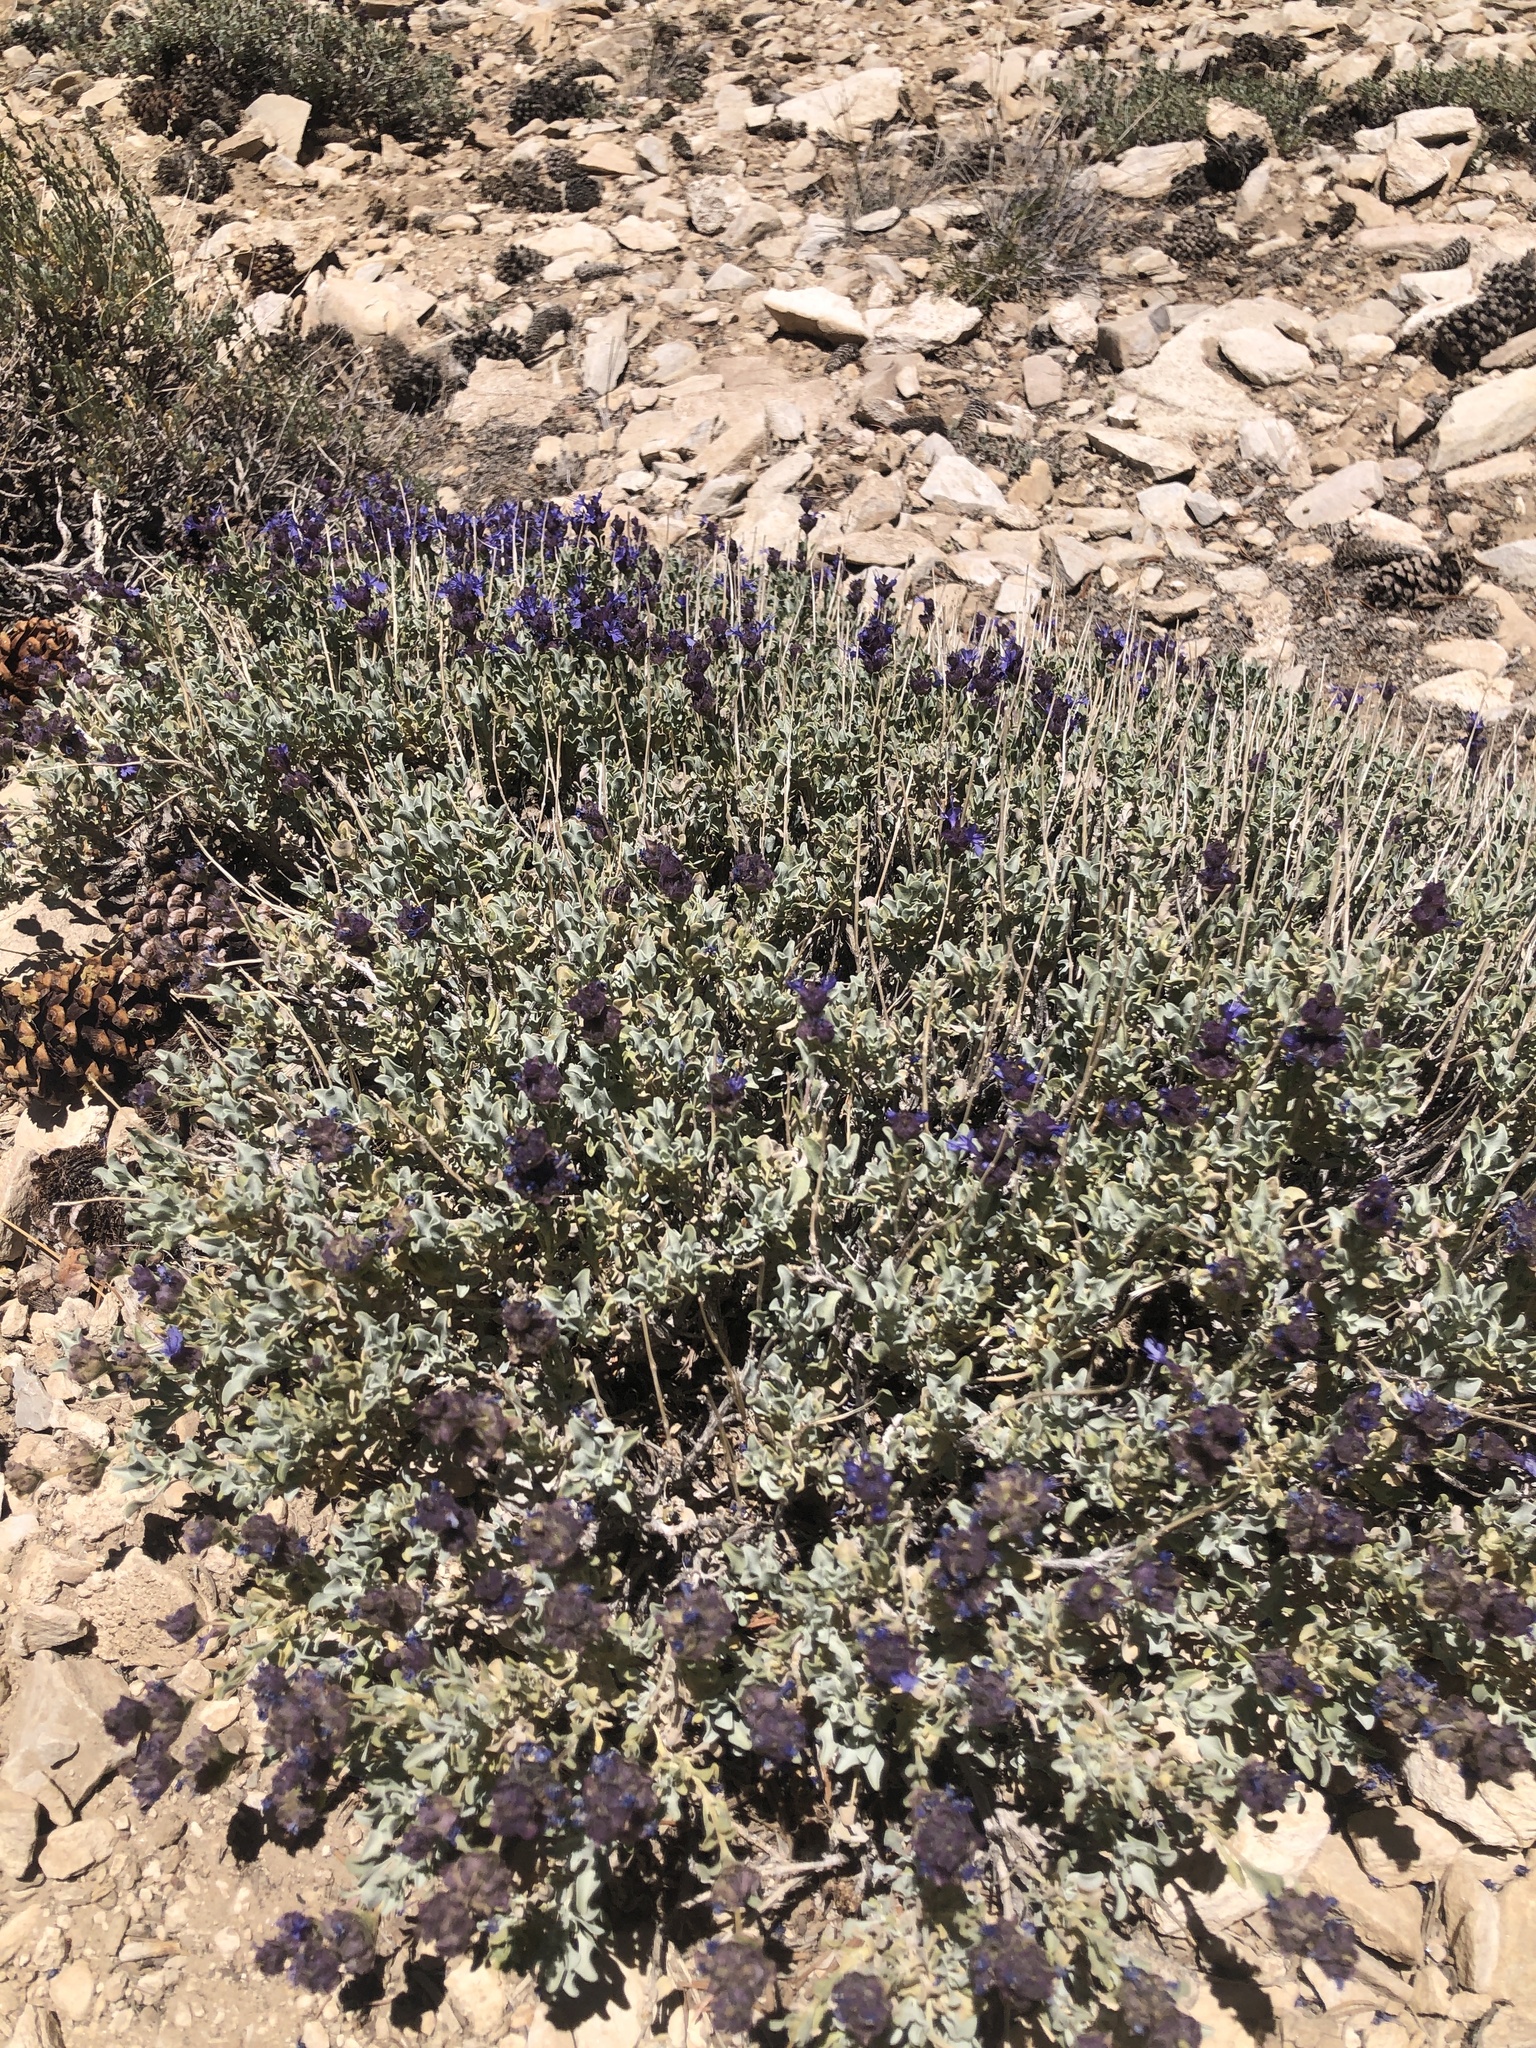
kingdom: Plantae
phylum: Tracheophyta
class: Magnoliopsida
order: Lamiales
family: Lamiaceae
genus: Salvia
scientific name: Salvia dorrii
